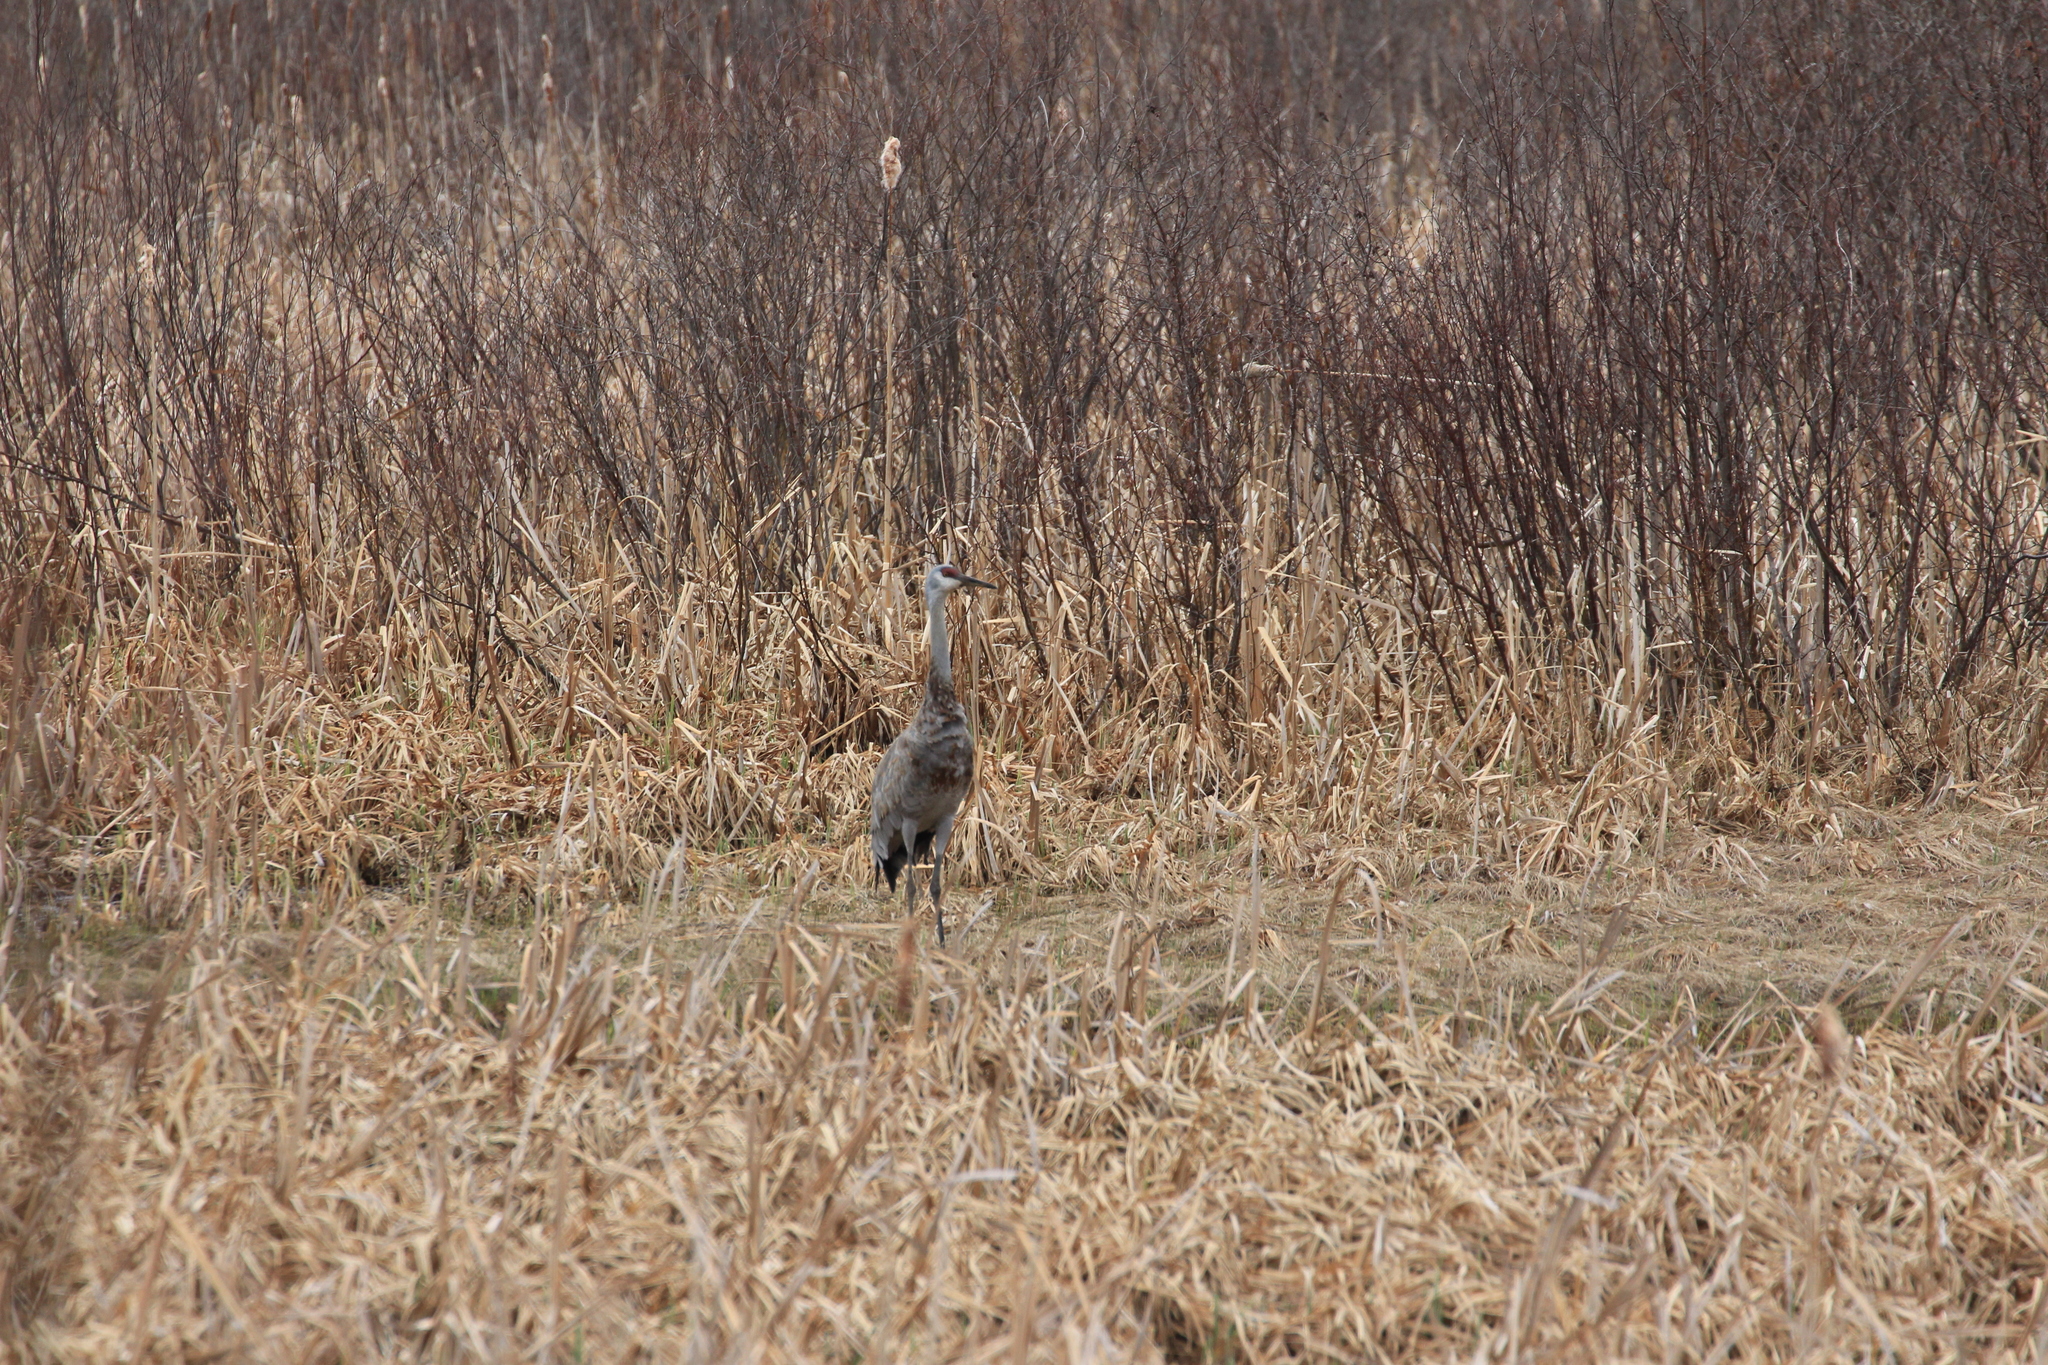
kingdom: Animalia
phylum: Chordata
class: Aves
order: Gruiformes
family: Gruidae
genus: Grus
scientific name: Grus canadensis
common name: Sandhill crane
